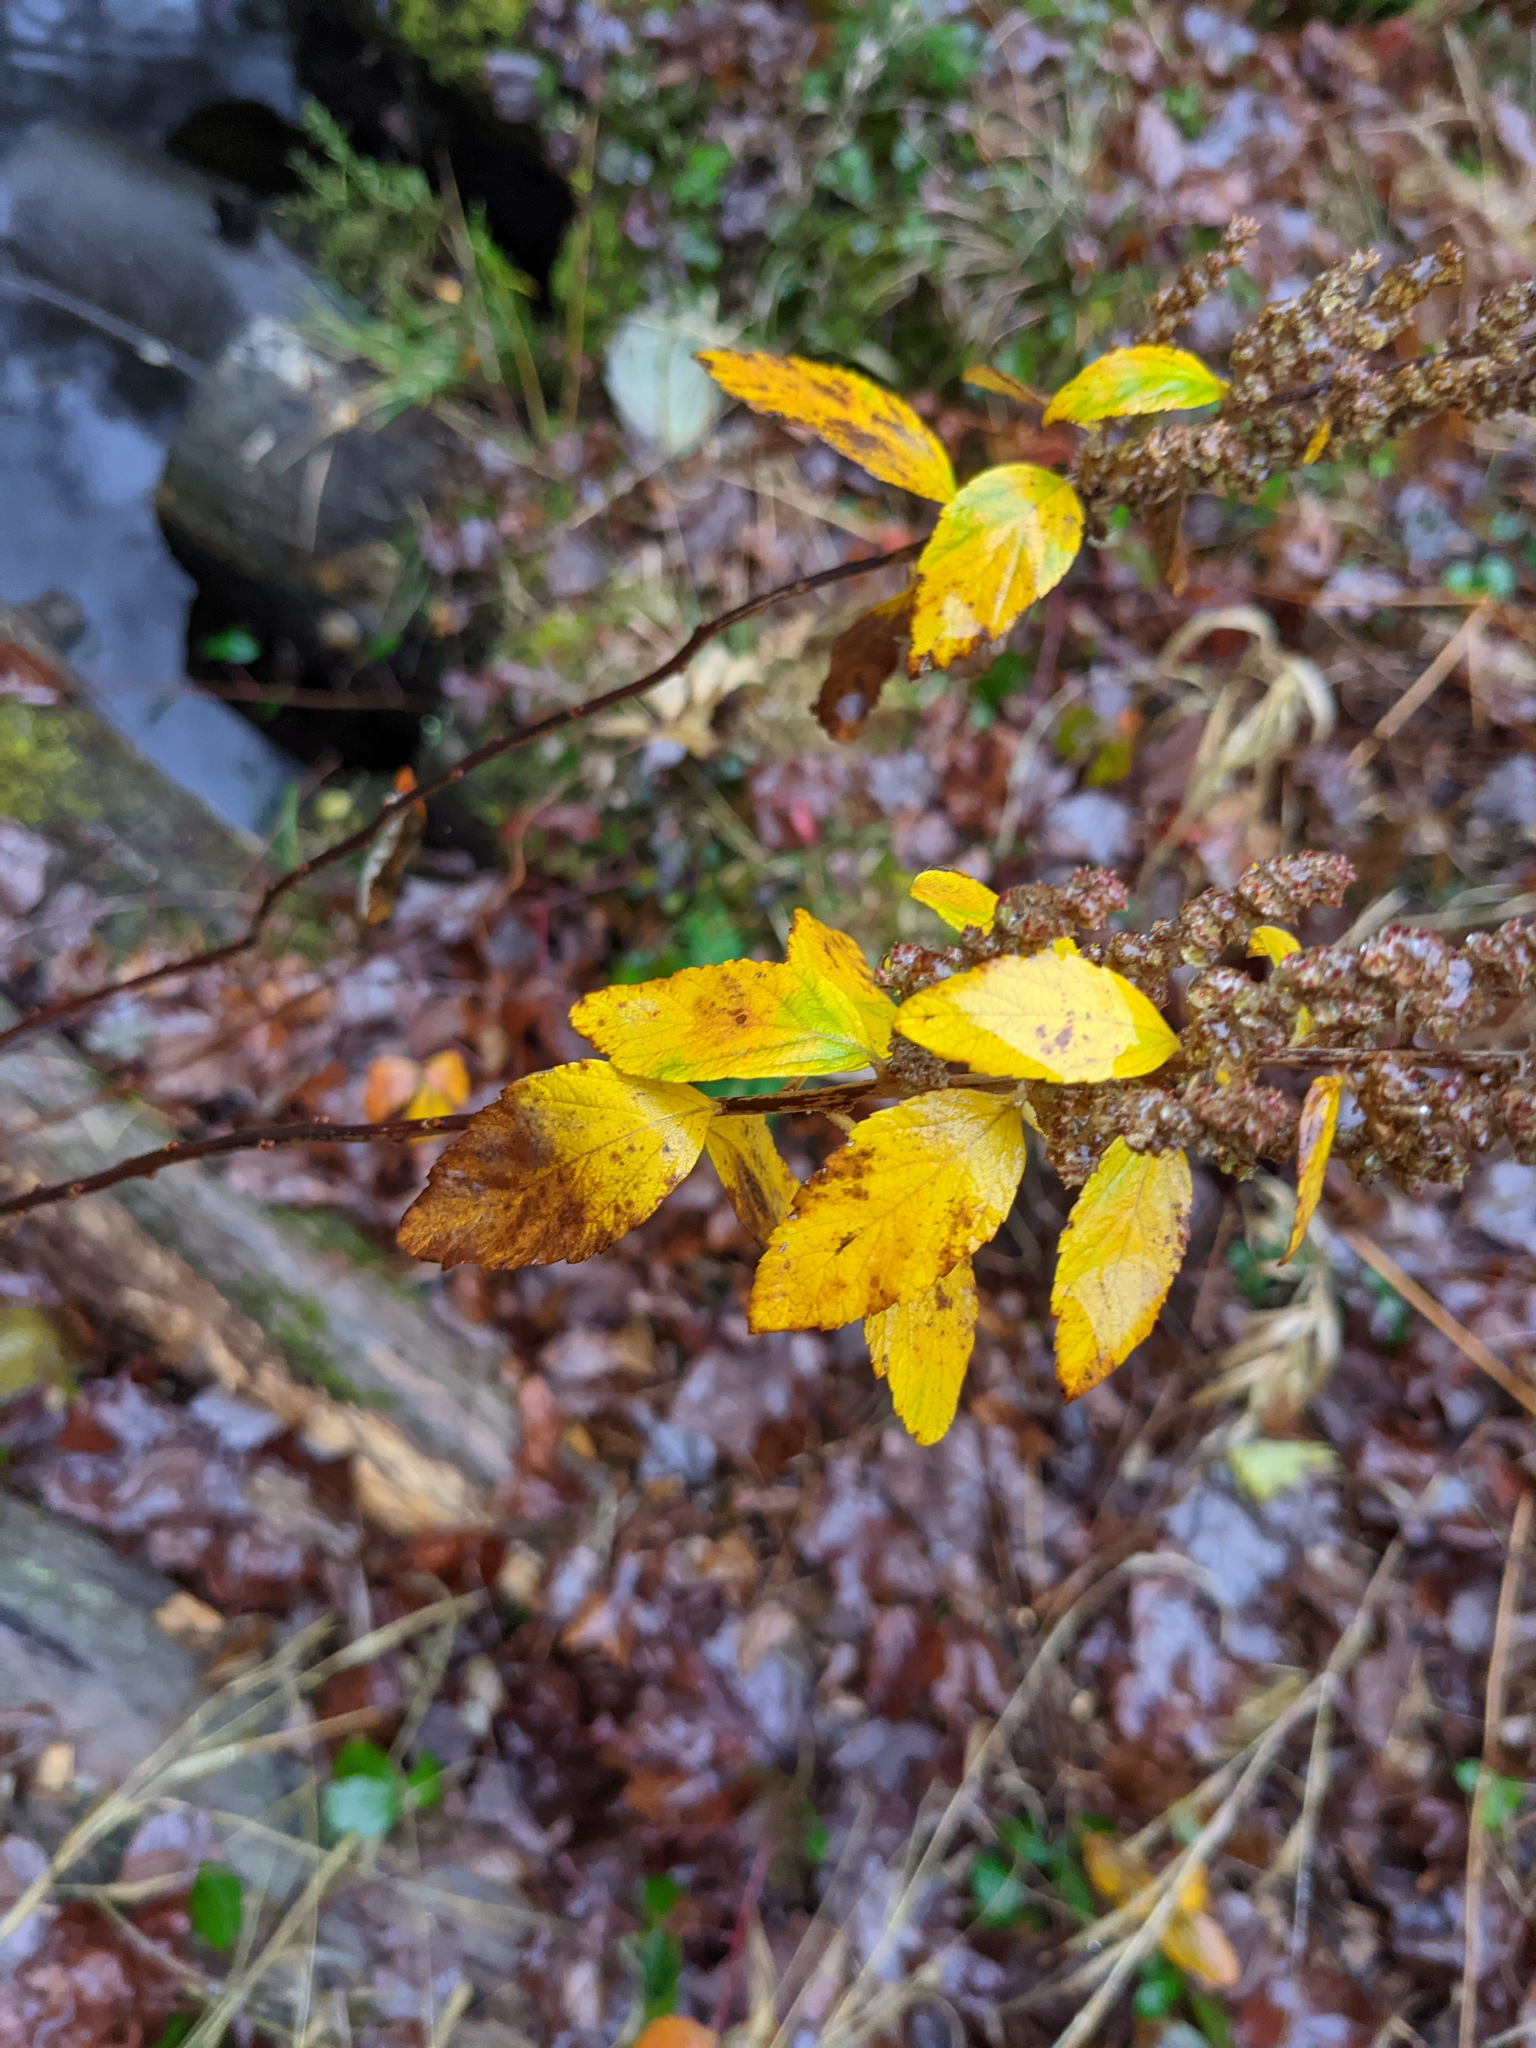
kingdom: Plantae
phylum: Tracheophyta
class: Magnoliopsida
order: Rosales
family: Rosaceae
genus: Spiraea
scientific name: Spiraea tomentosa
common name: Hardhack
